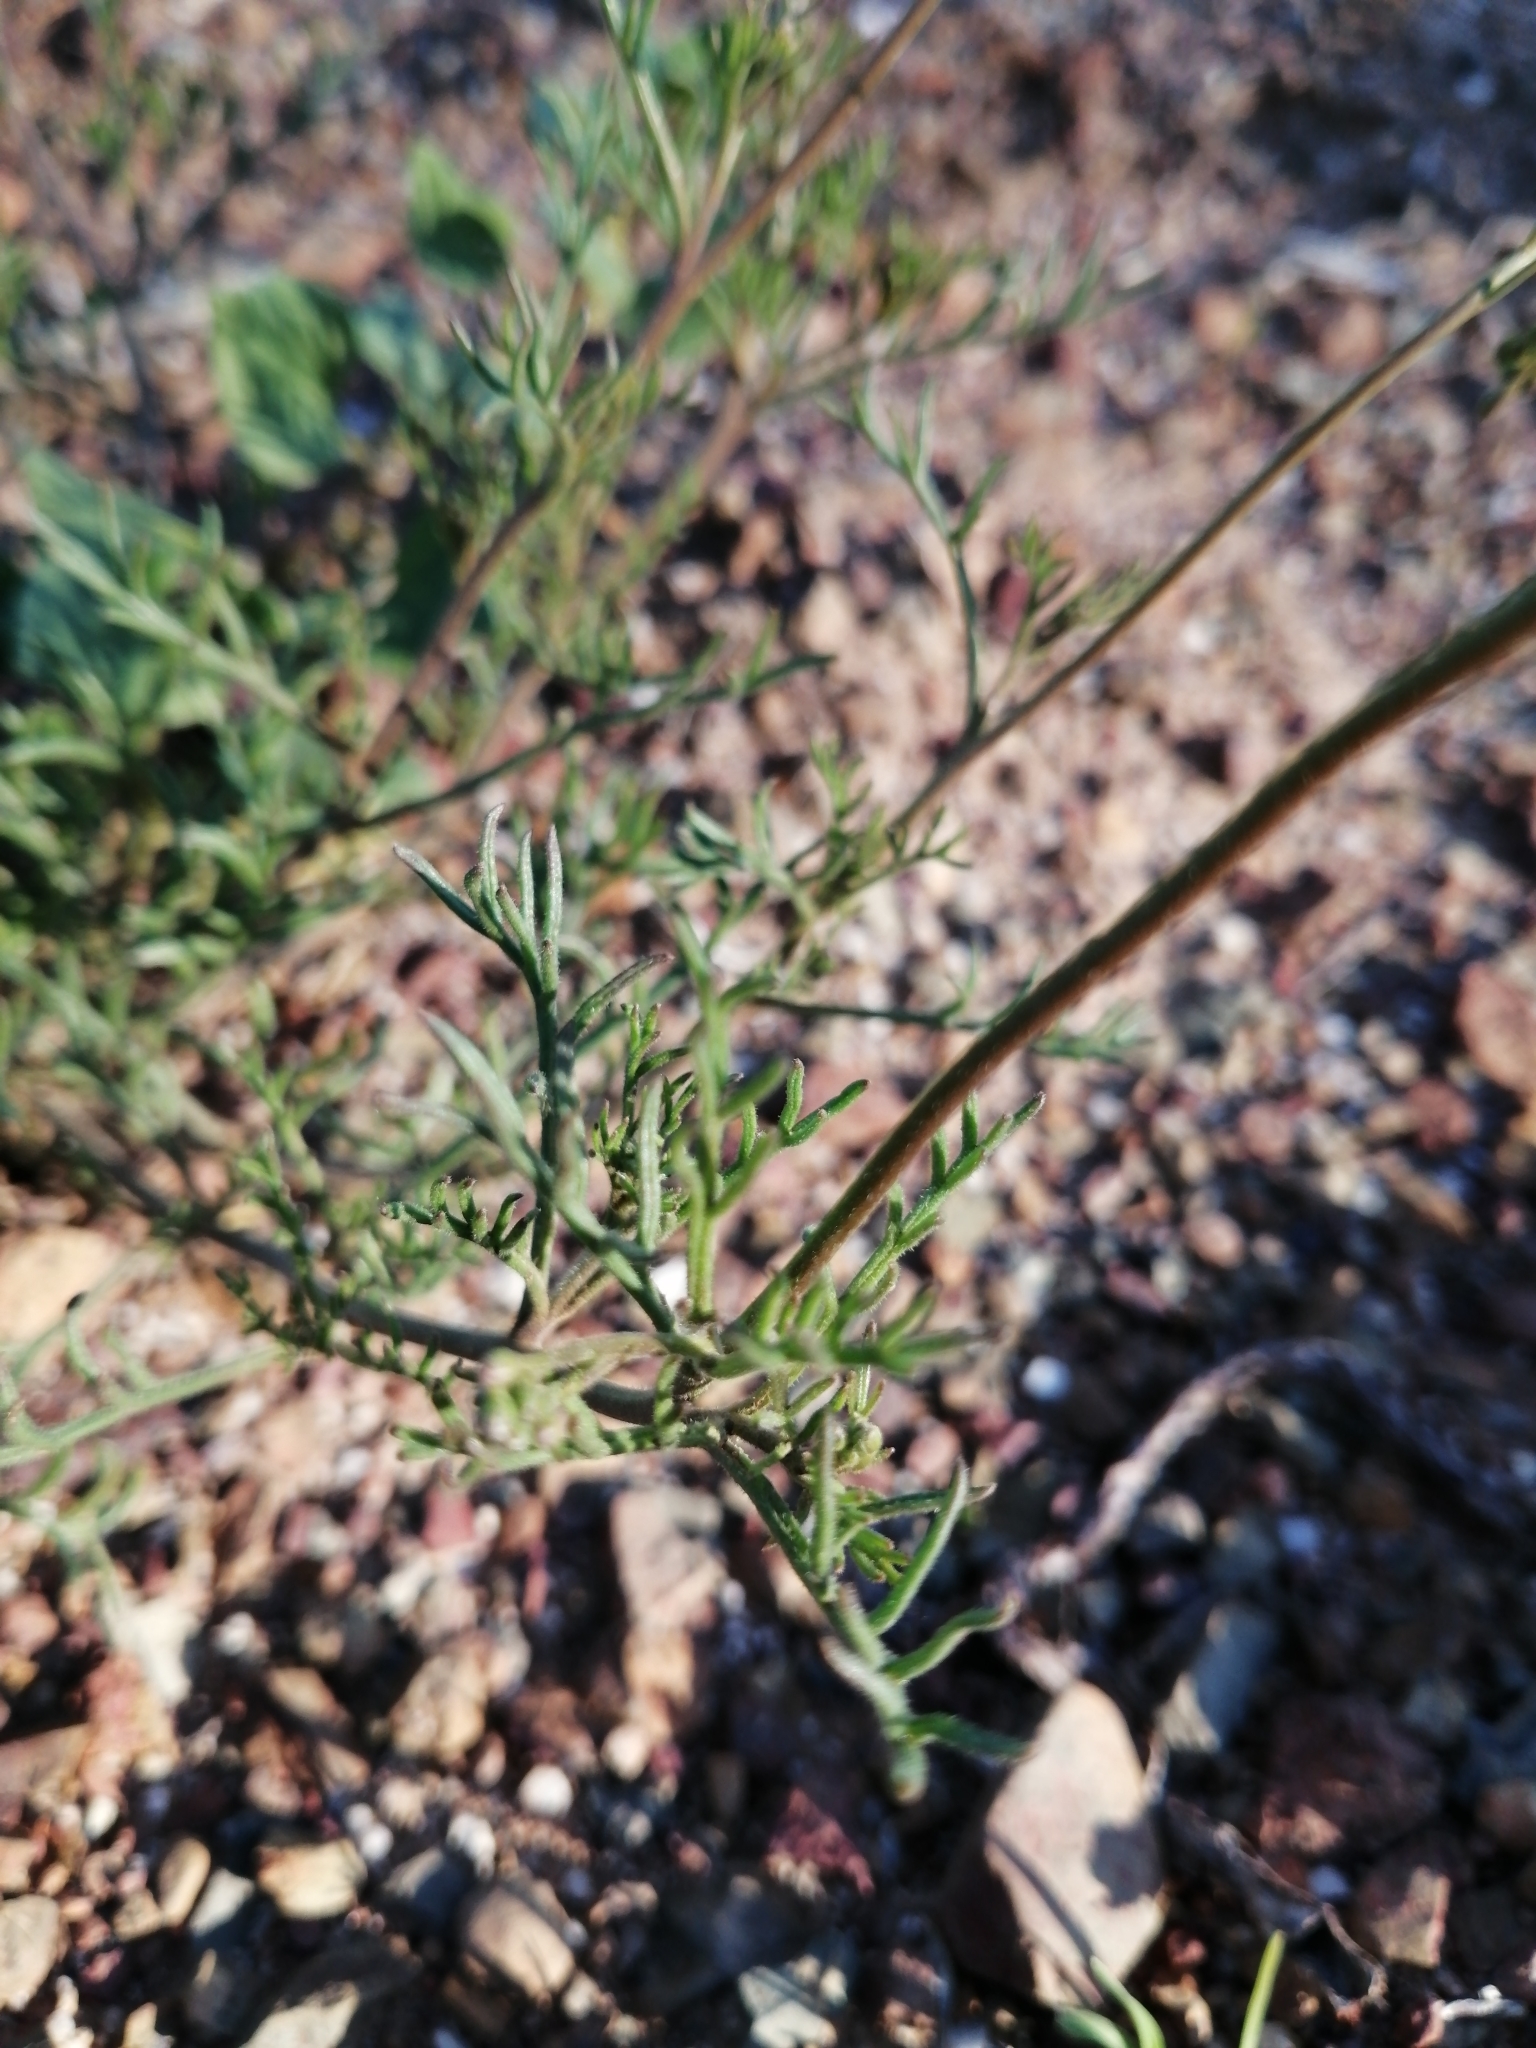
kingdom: Plantae
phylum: Tracheophyta
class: Magnoliopsida
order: Brassicales
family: Brassicaceae
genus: Heliophila
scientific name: Heliophila crithmifolia
